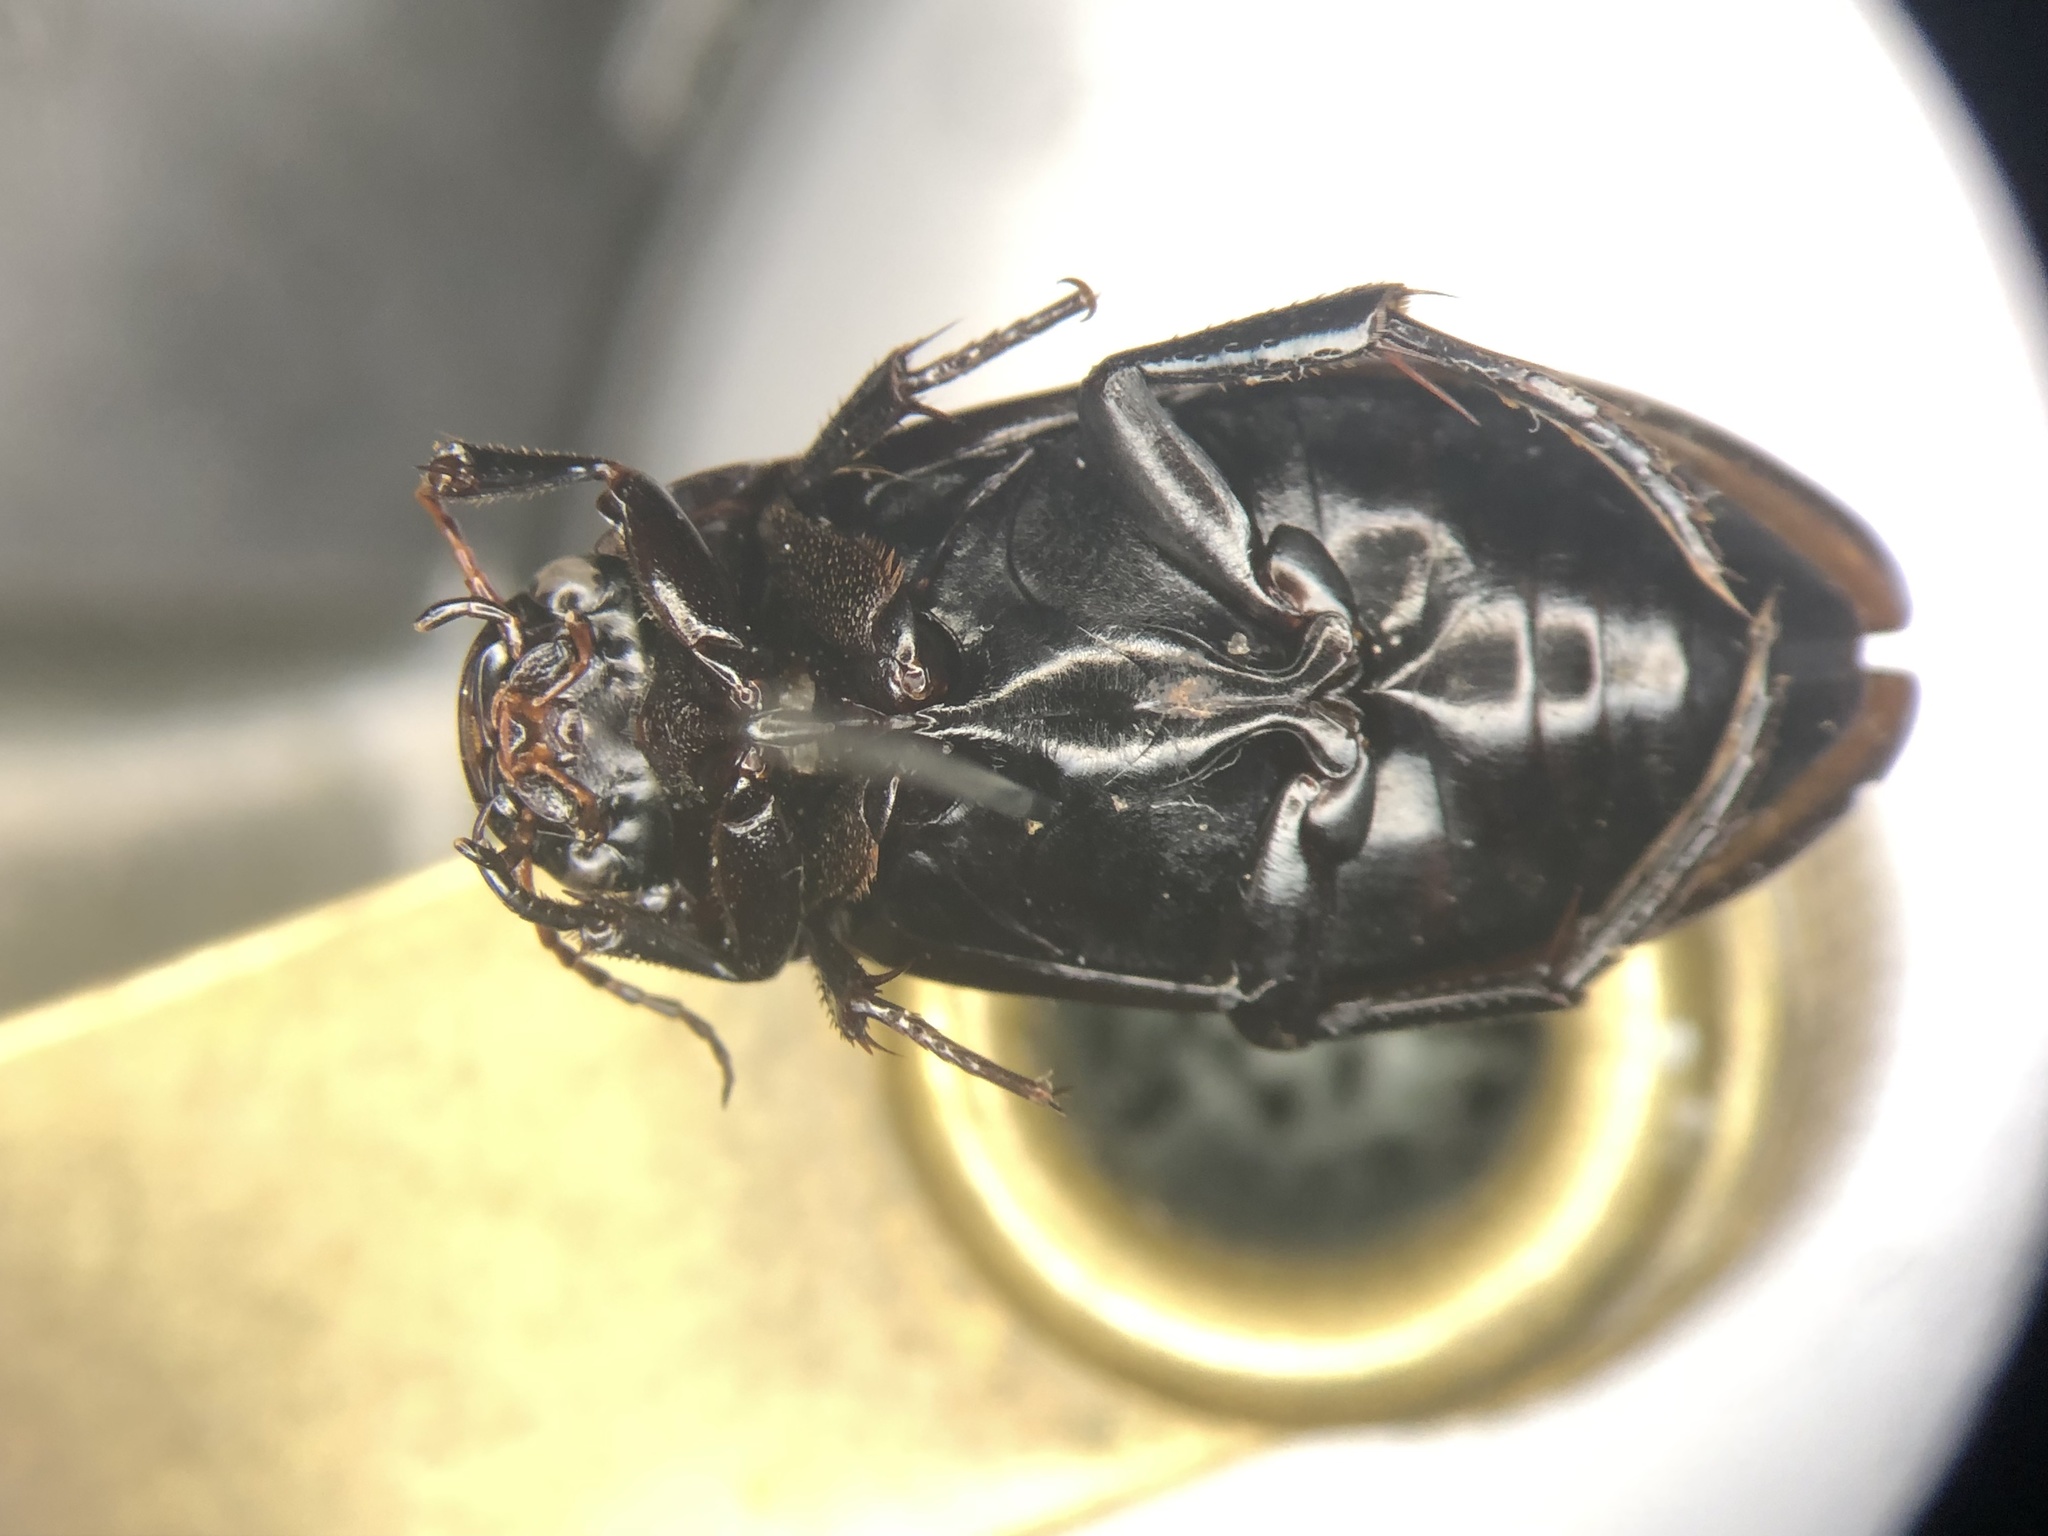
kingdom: Animalia
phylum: Arthropoda
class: Insecta
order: Coleoptera
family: Dytiscidae
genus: Neoscutopterus
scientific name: Neoscutopterus angustus
